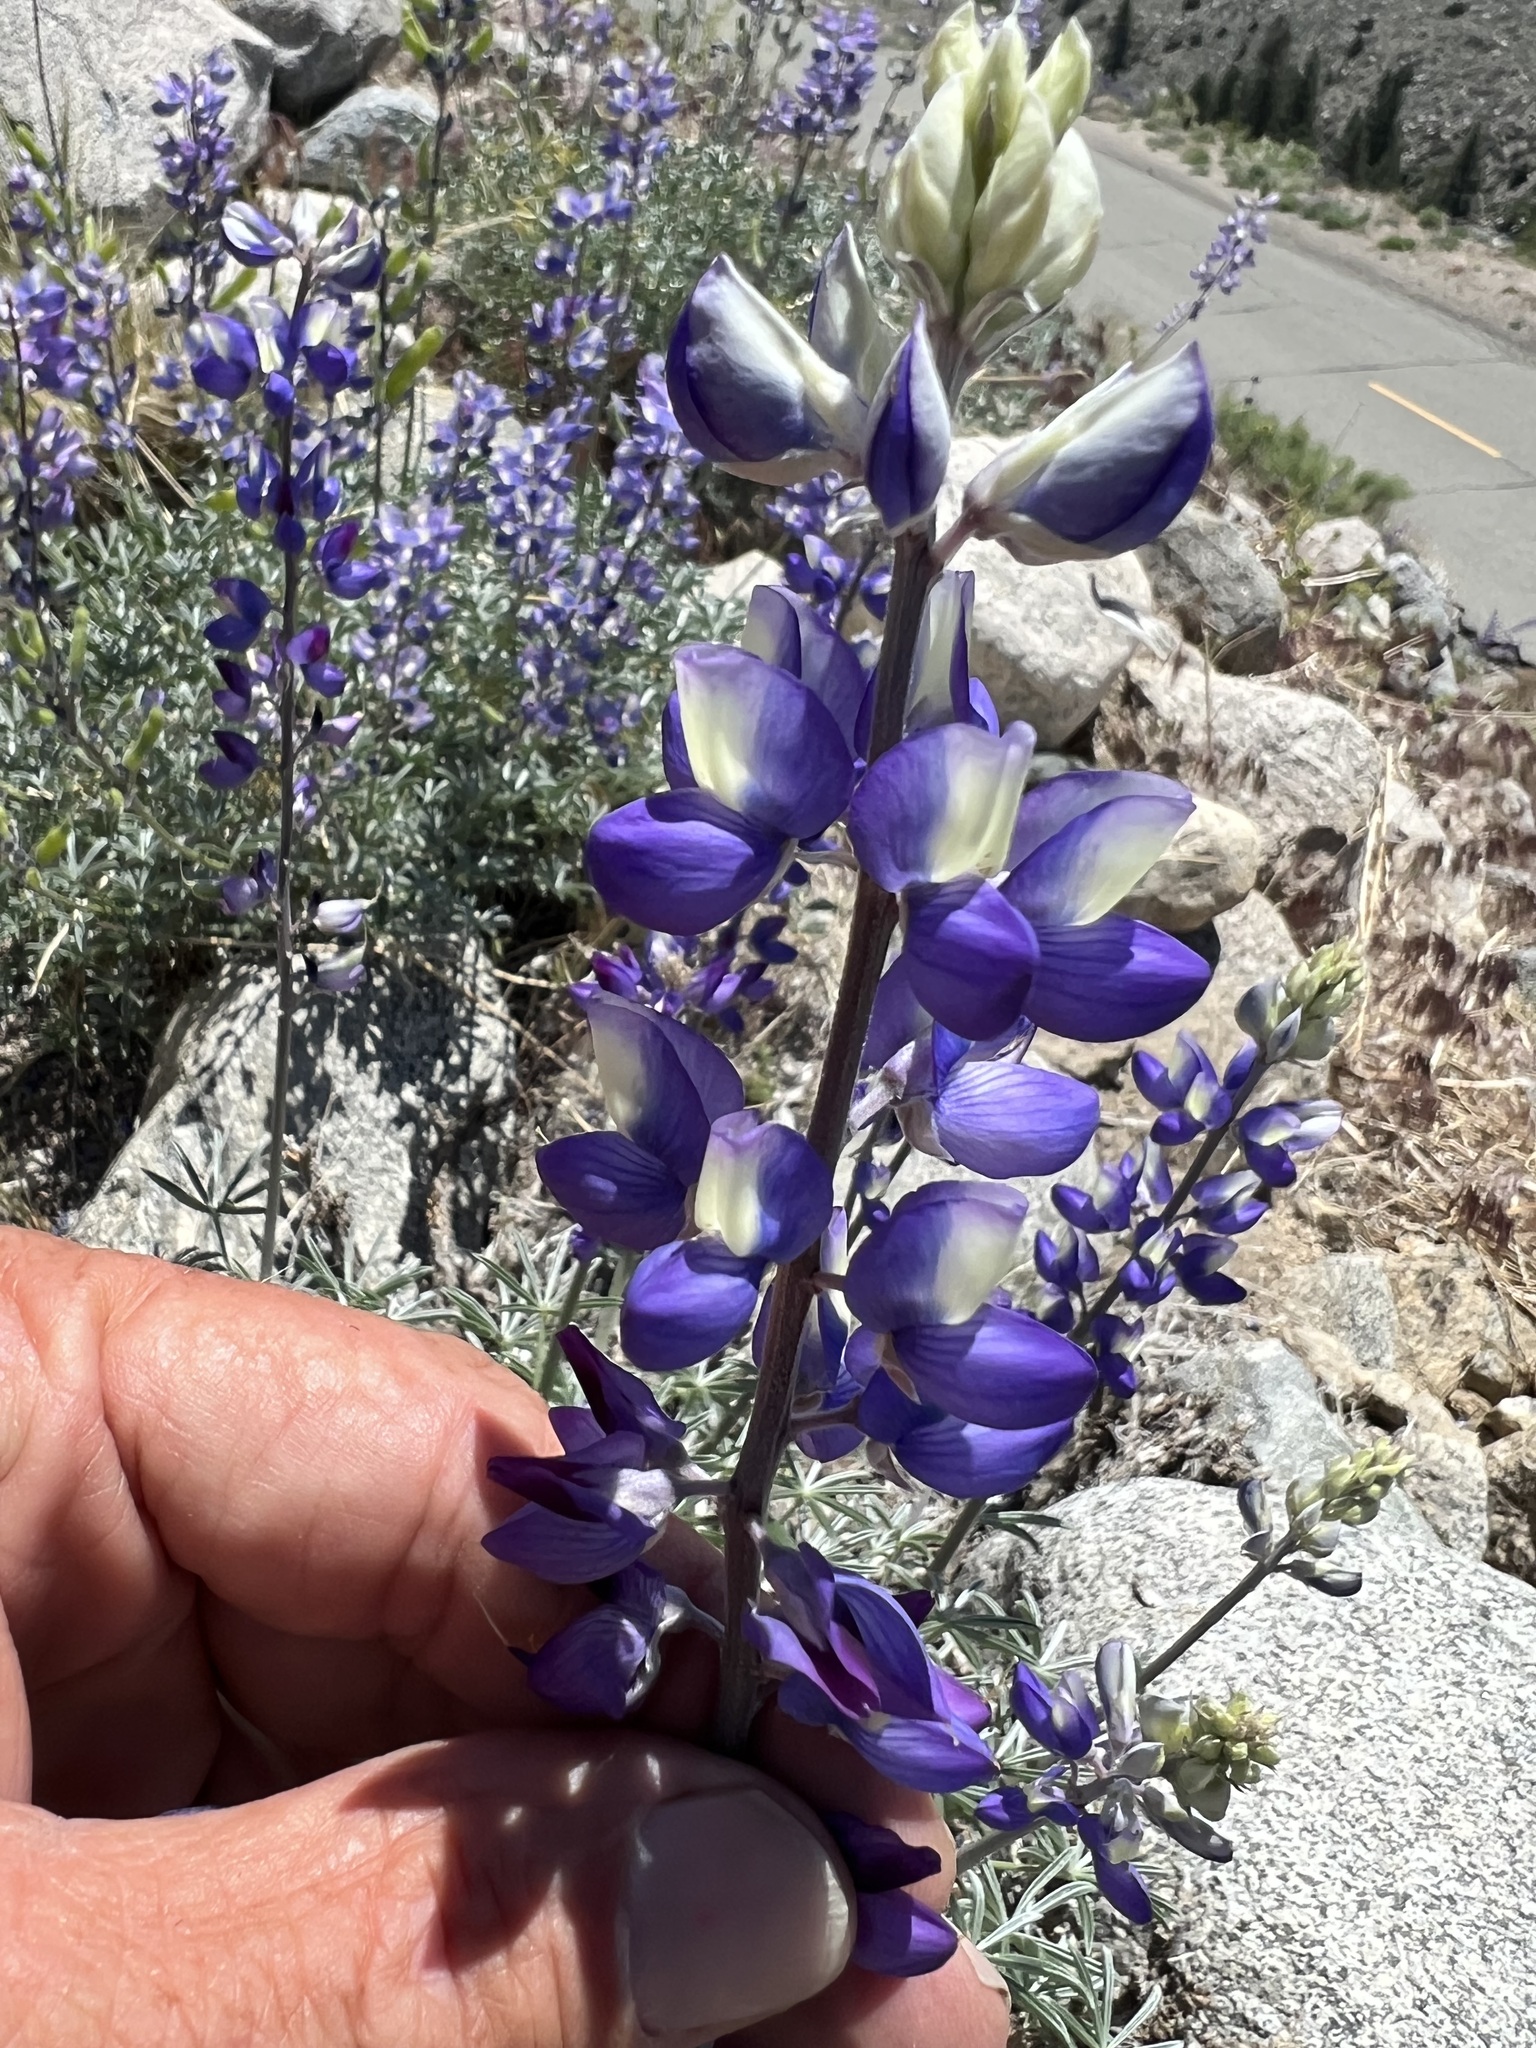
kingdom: Plantae
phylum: Tracheophyta
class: Magnoliopsida
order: Fabales
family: Fabaceae
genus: Lupinus
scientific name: Lupinus excubitus
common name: Grape soda lupine
